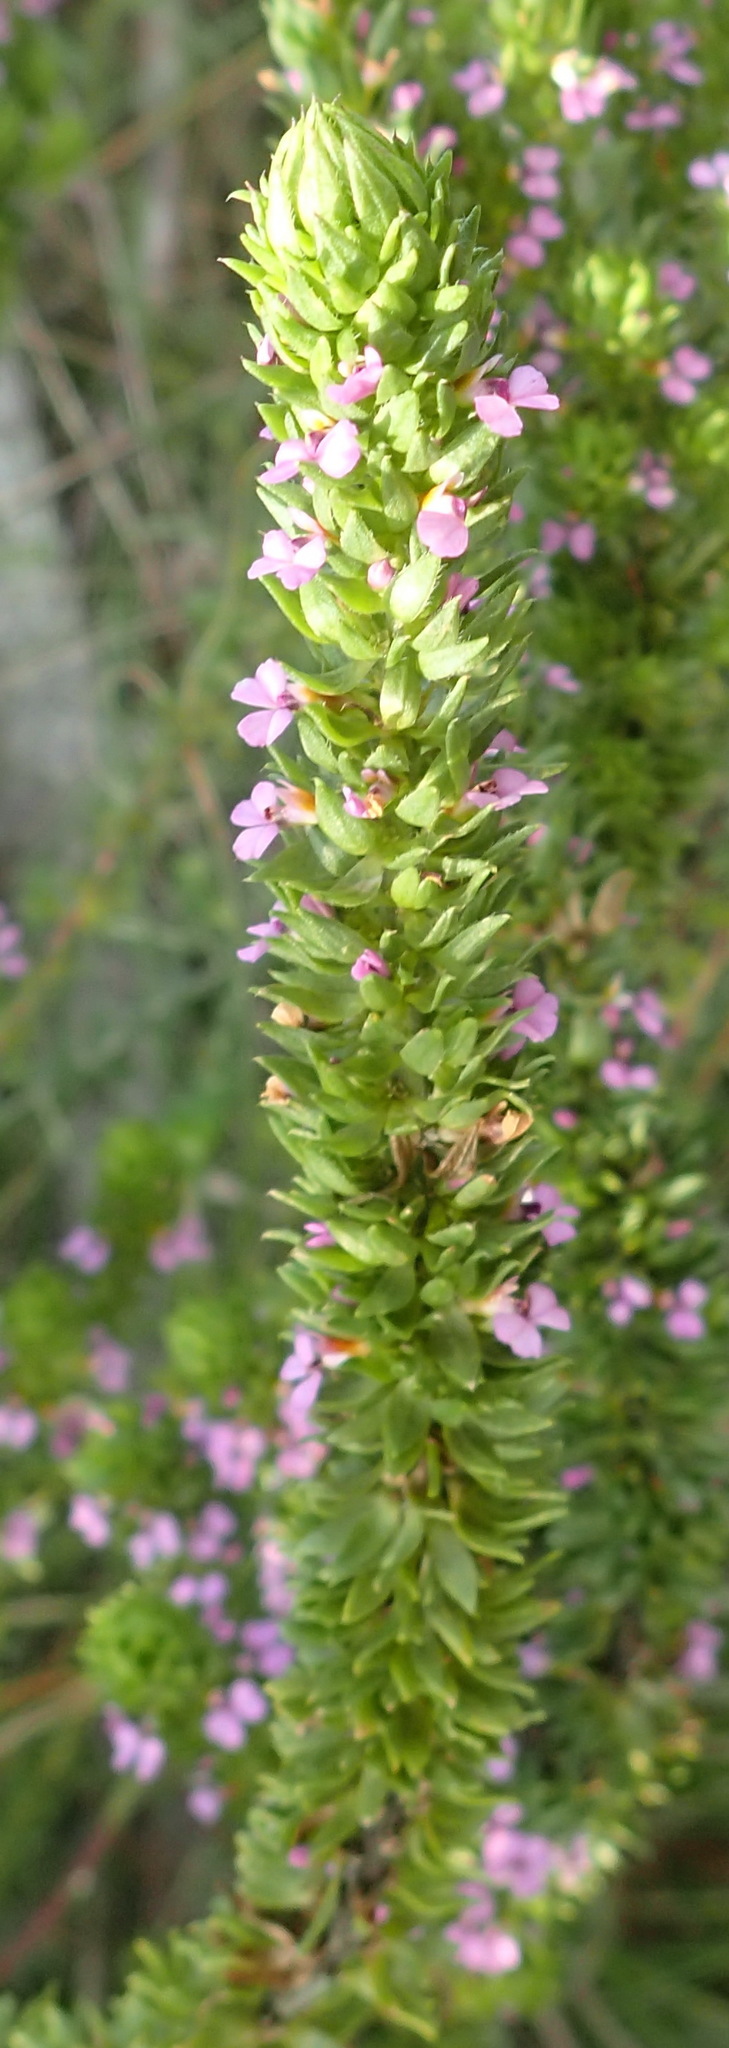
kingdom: Plantae
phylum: Tracheophyta
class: Magnoliopsida
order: Fabales
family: Polygalaceae
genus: Muraltia
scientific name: Muraltia squarrosa
